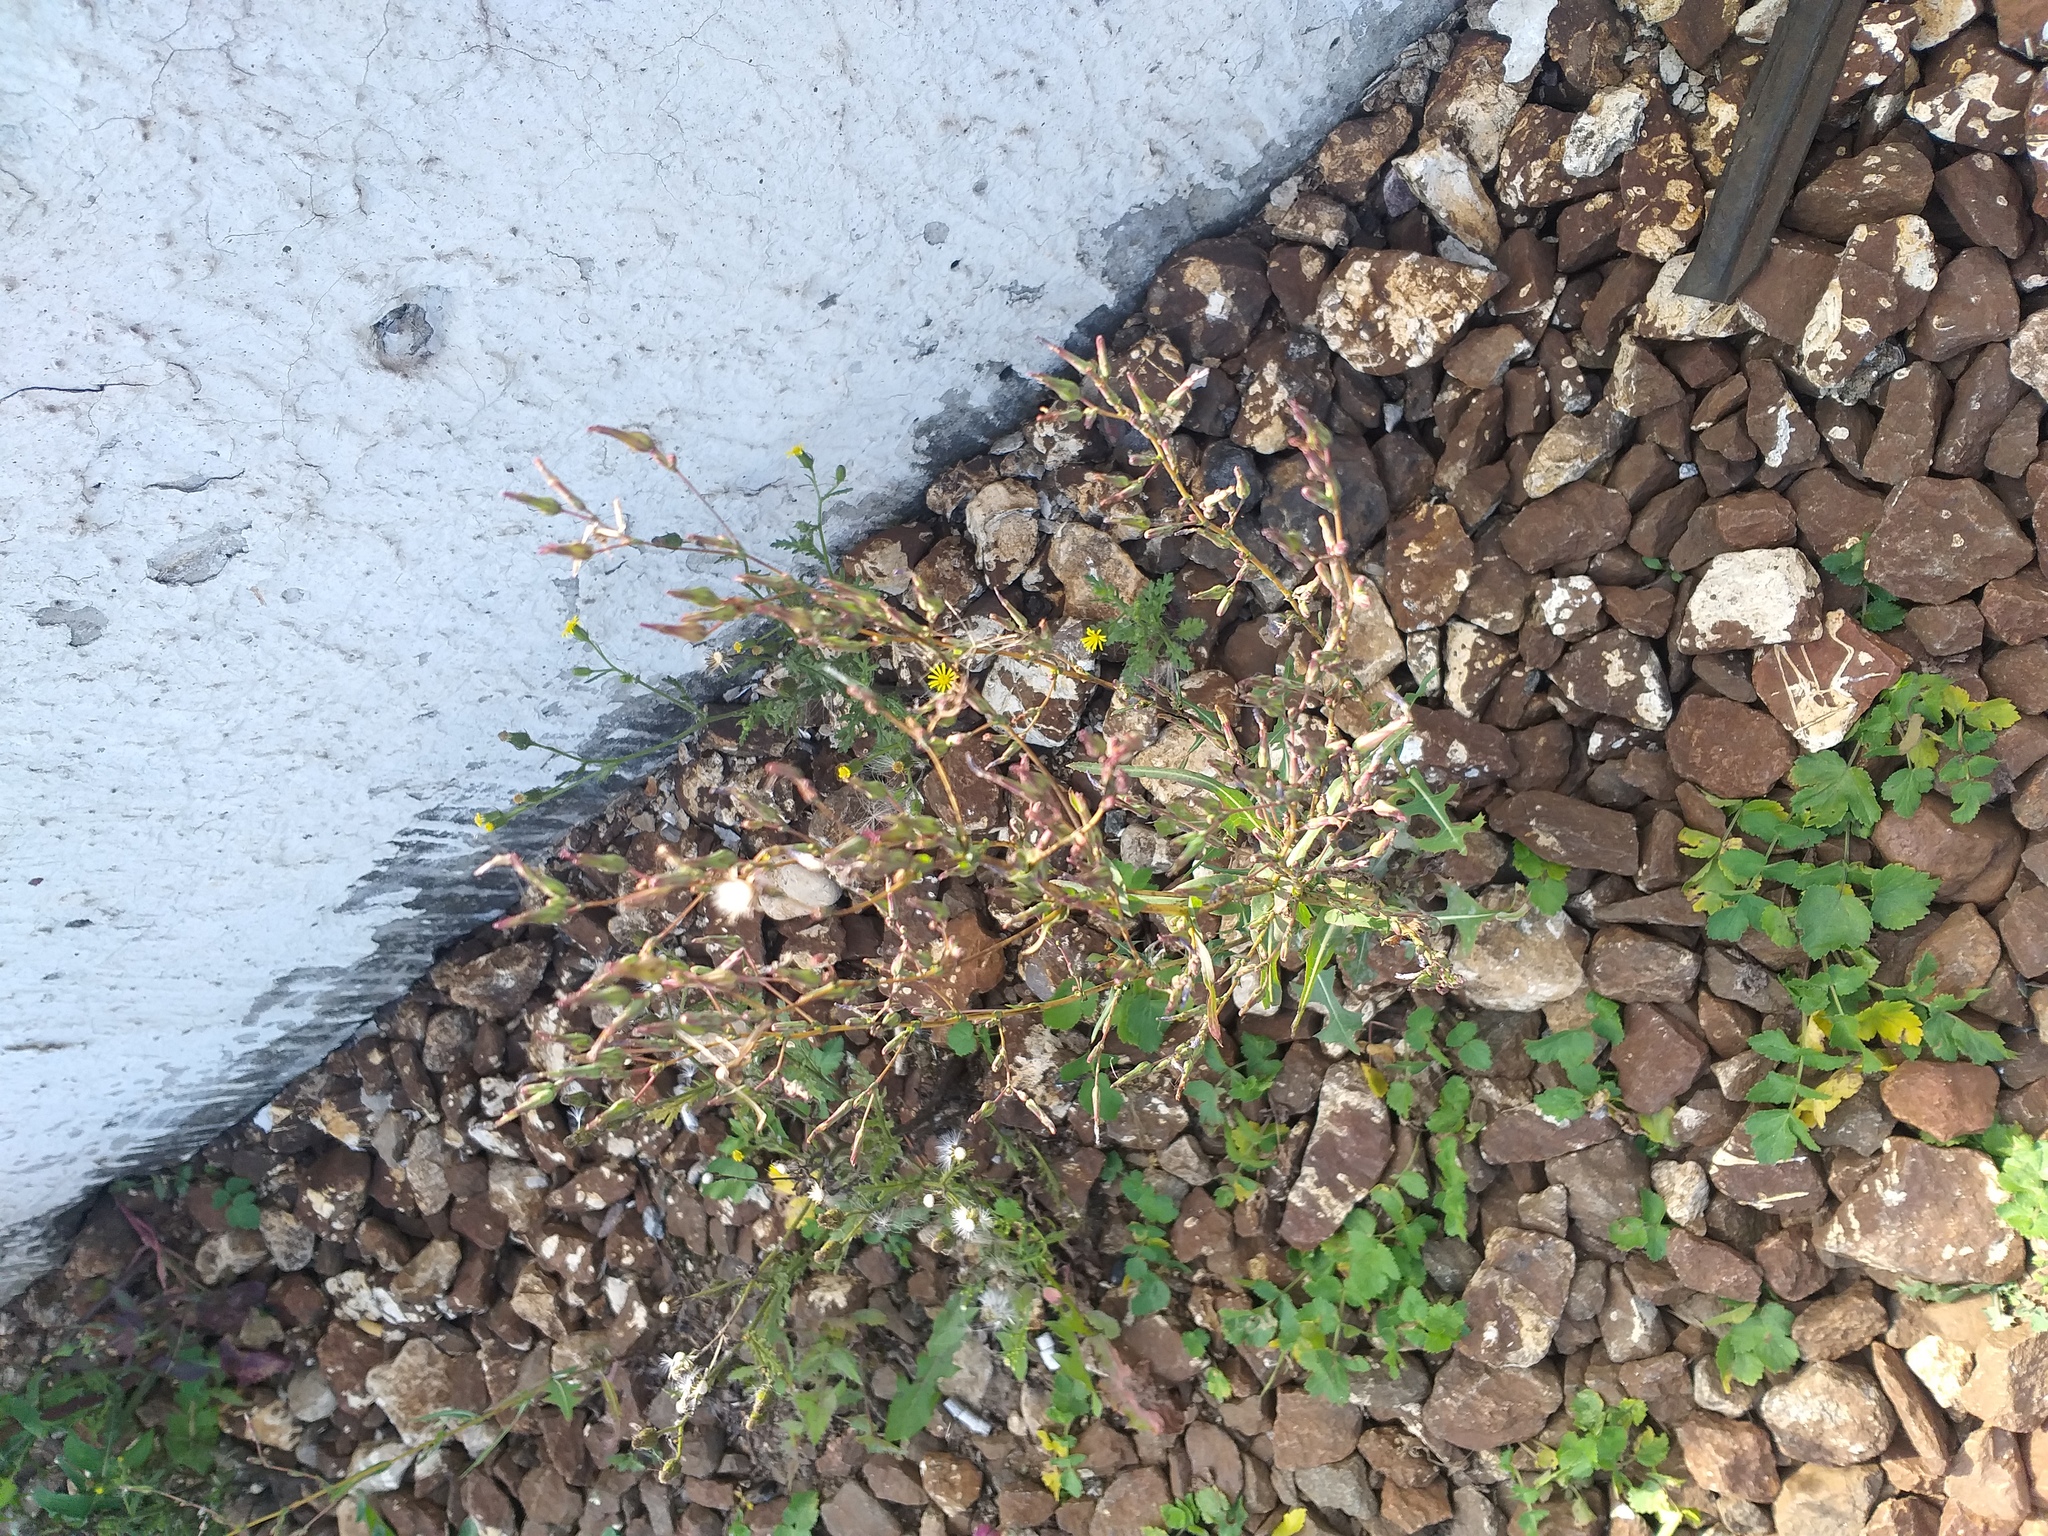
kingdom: Plantae
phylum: Tracheophyta
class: Magnoliopsida
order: Asterales
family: Asteraceae
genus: Lactuca
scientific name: Lactuca serriola
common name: Prickly lettuce
